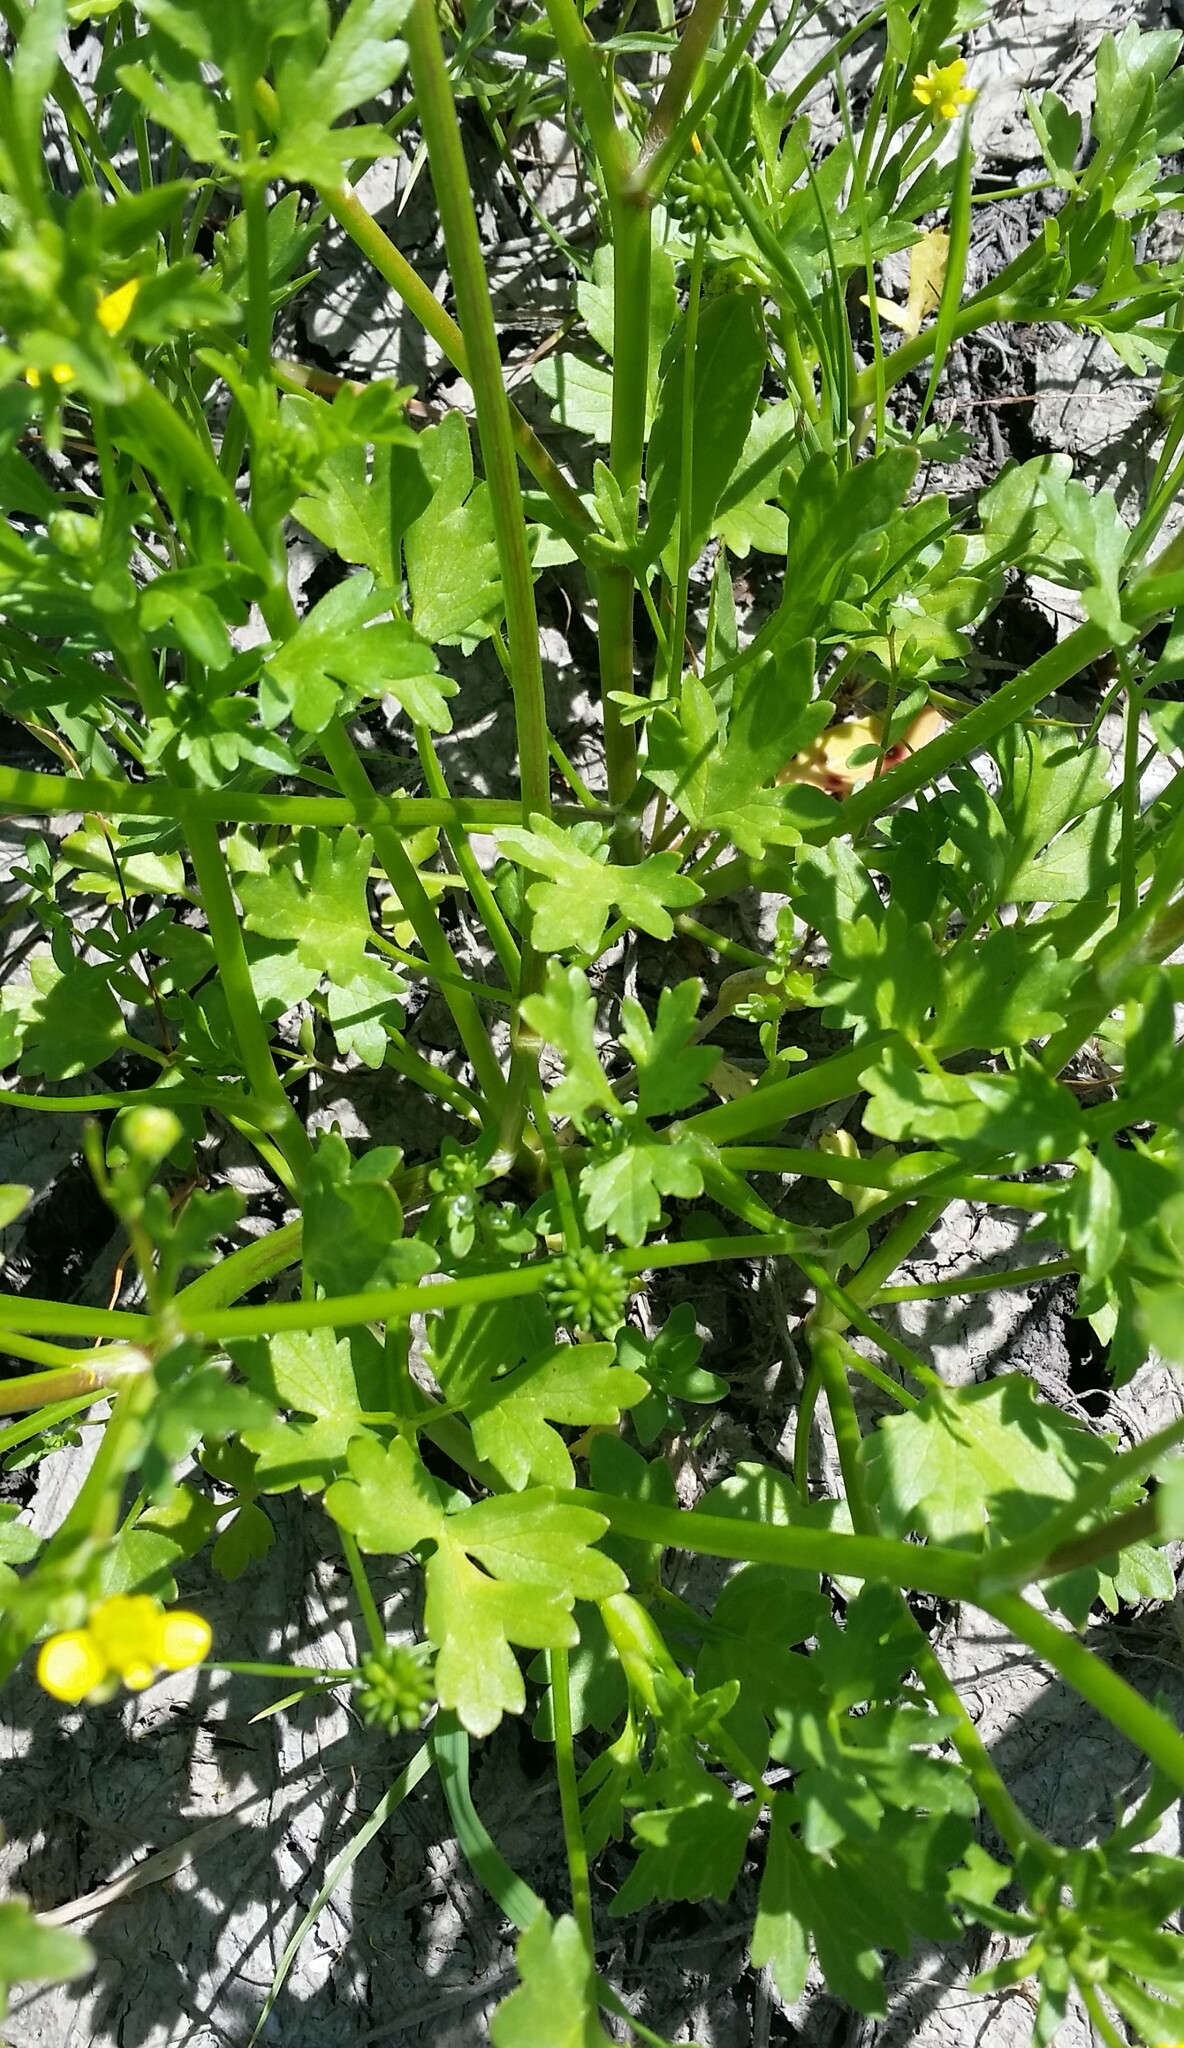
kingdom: Plantae
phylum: Tracheophyta
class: Magnoliopsida
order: Ranunculales
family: Ranunculaceae
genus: Ranunculus
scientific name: Ranunculus muricatus
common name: Rough-fruited buttercup
